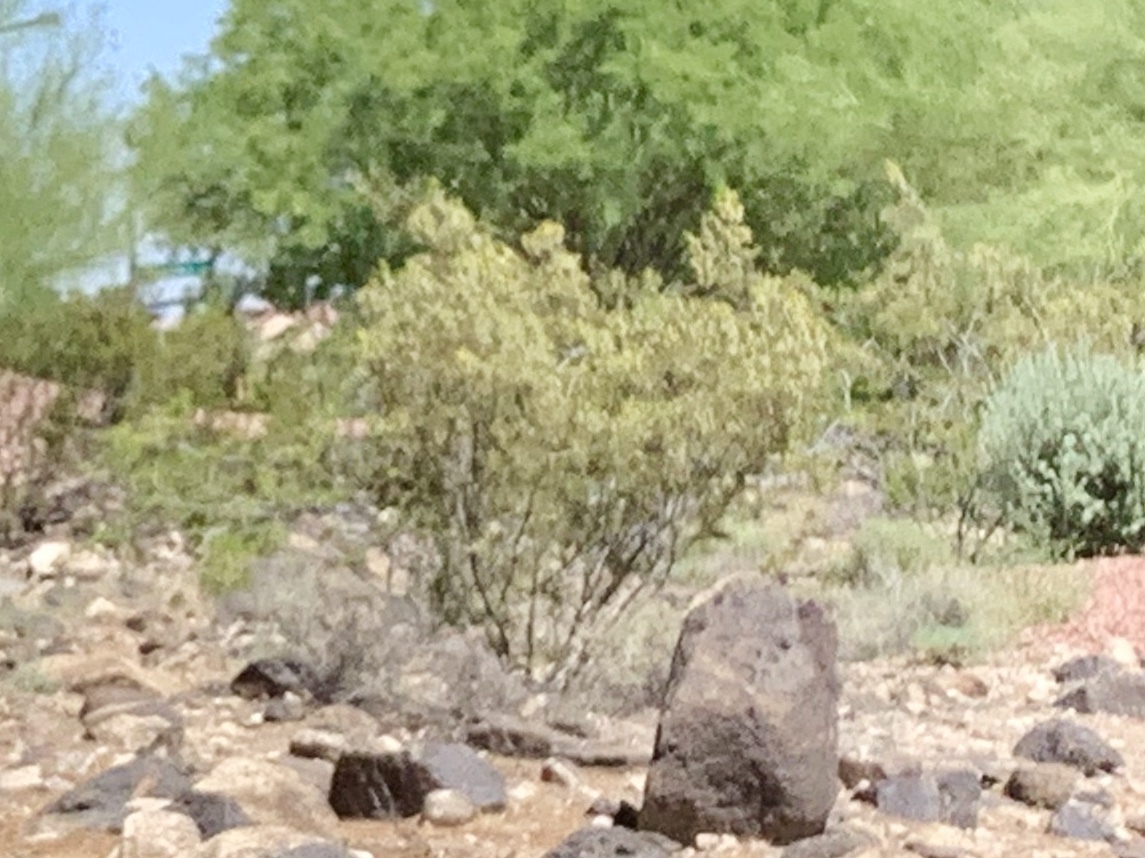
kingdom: Plantae
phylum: Tracheophyta
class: Magnoliopsida
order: Zygophyllales
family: Zygophyllaceae
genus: Larrea
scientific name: Larrea tridentata
